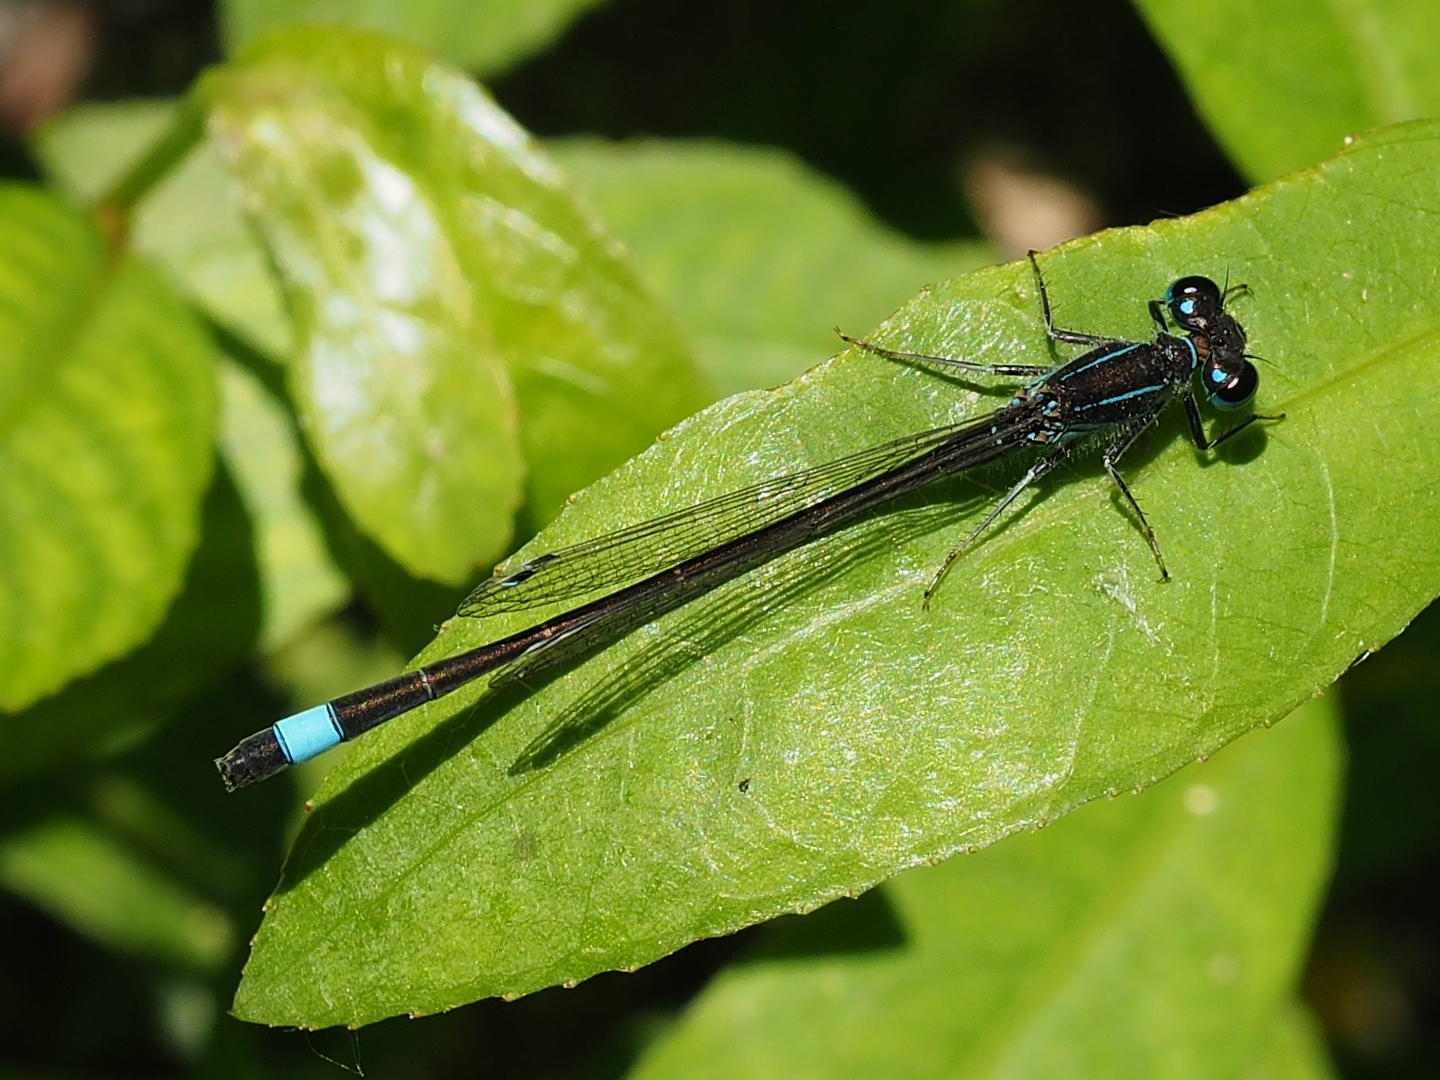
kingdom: Animalia
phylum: Arthropoda
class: Insecta
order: Odonata
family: Coenagrionidae
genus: Ischnura
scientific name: Ischnura genei
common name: Island bluetail
